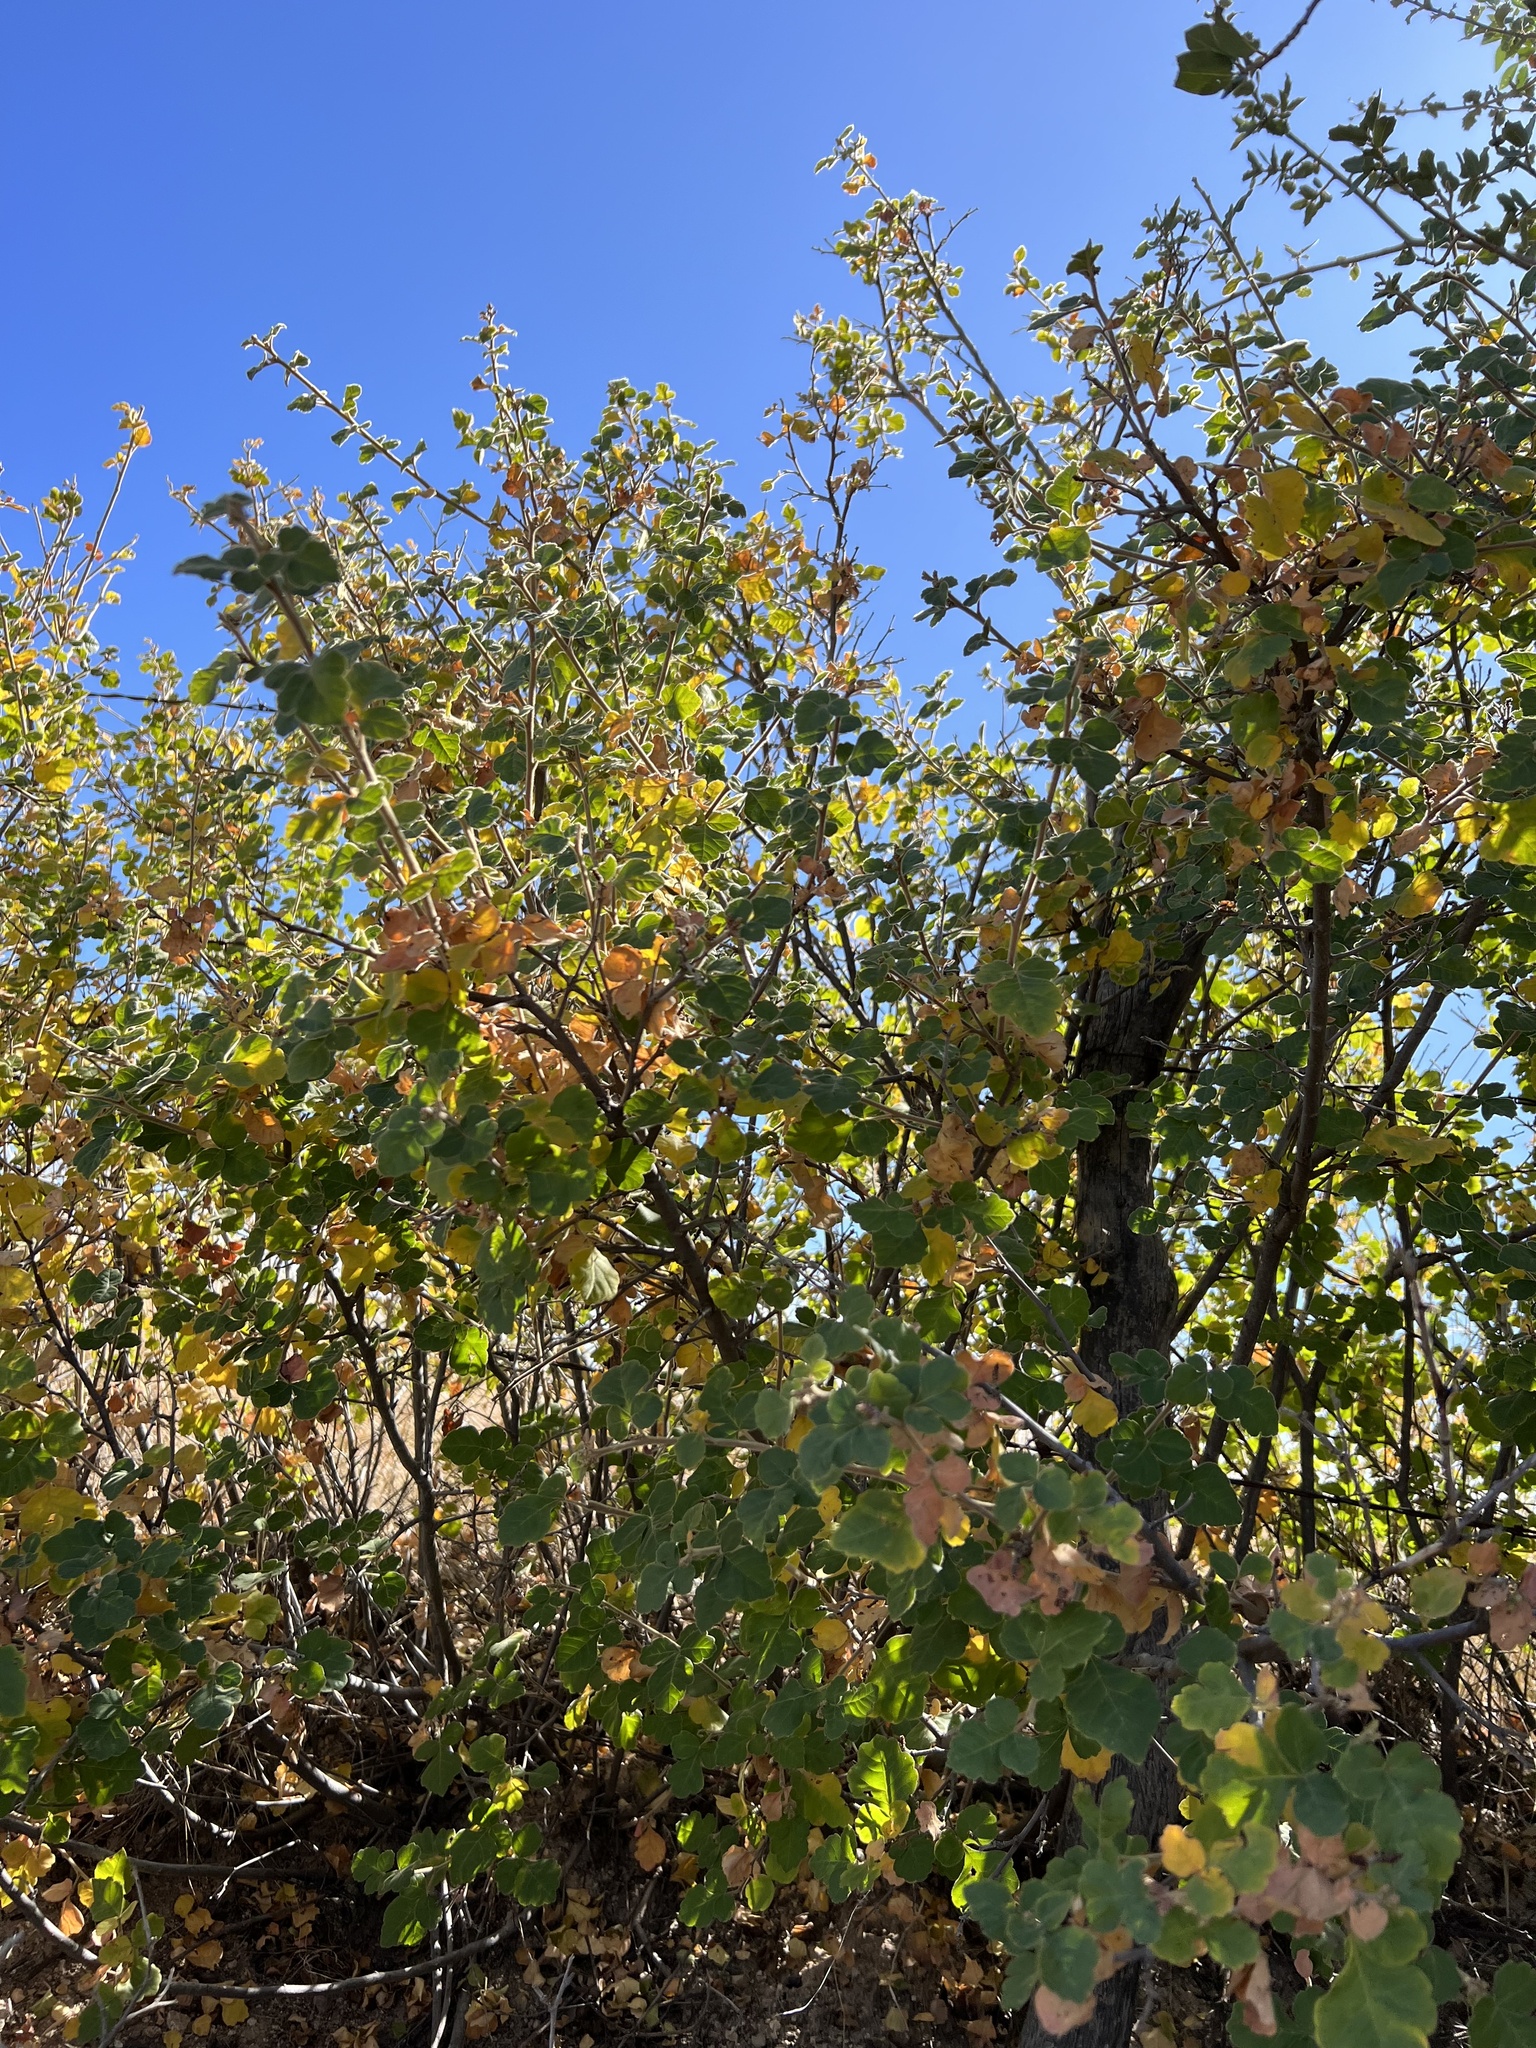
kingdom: Plantae
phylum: Tracheophyta
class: Magnoliopsida
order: Sapindales
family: Anacardiaceae
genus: Rhus
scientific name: Rhus aromatica
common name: Aromatic sumac
